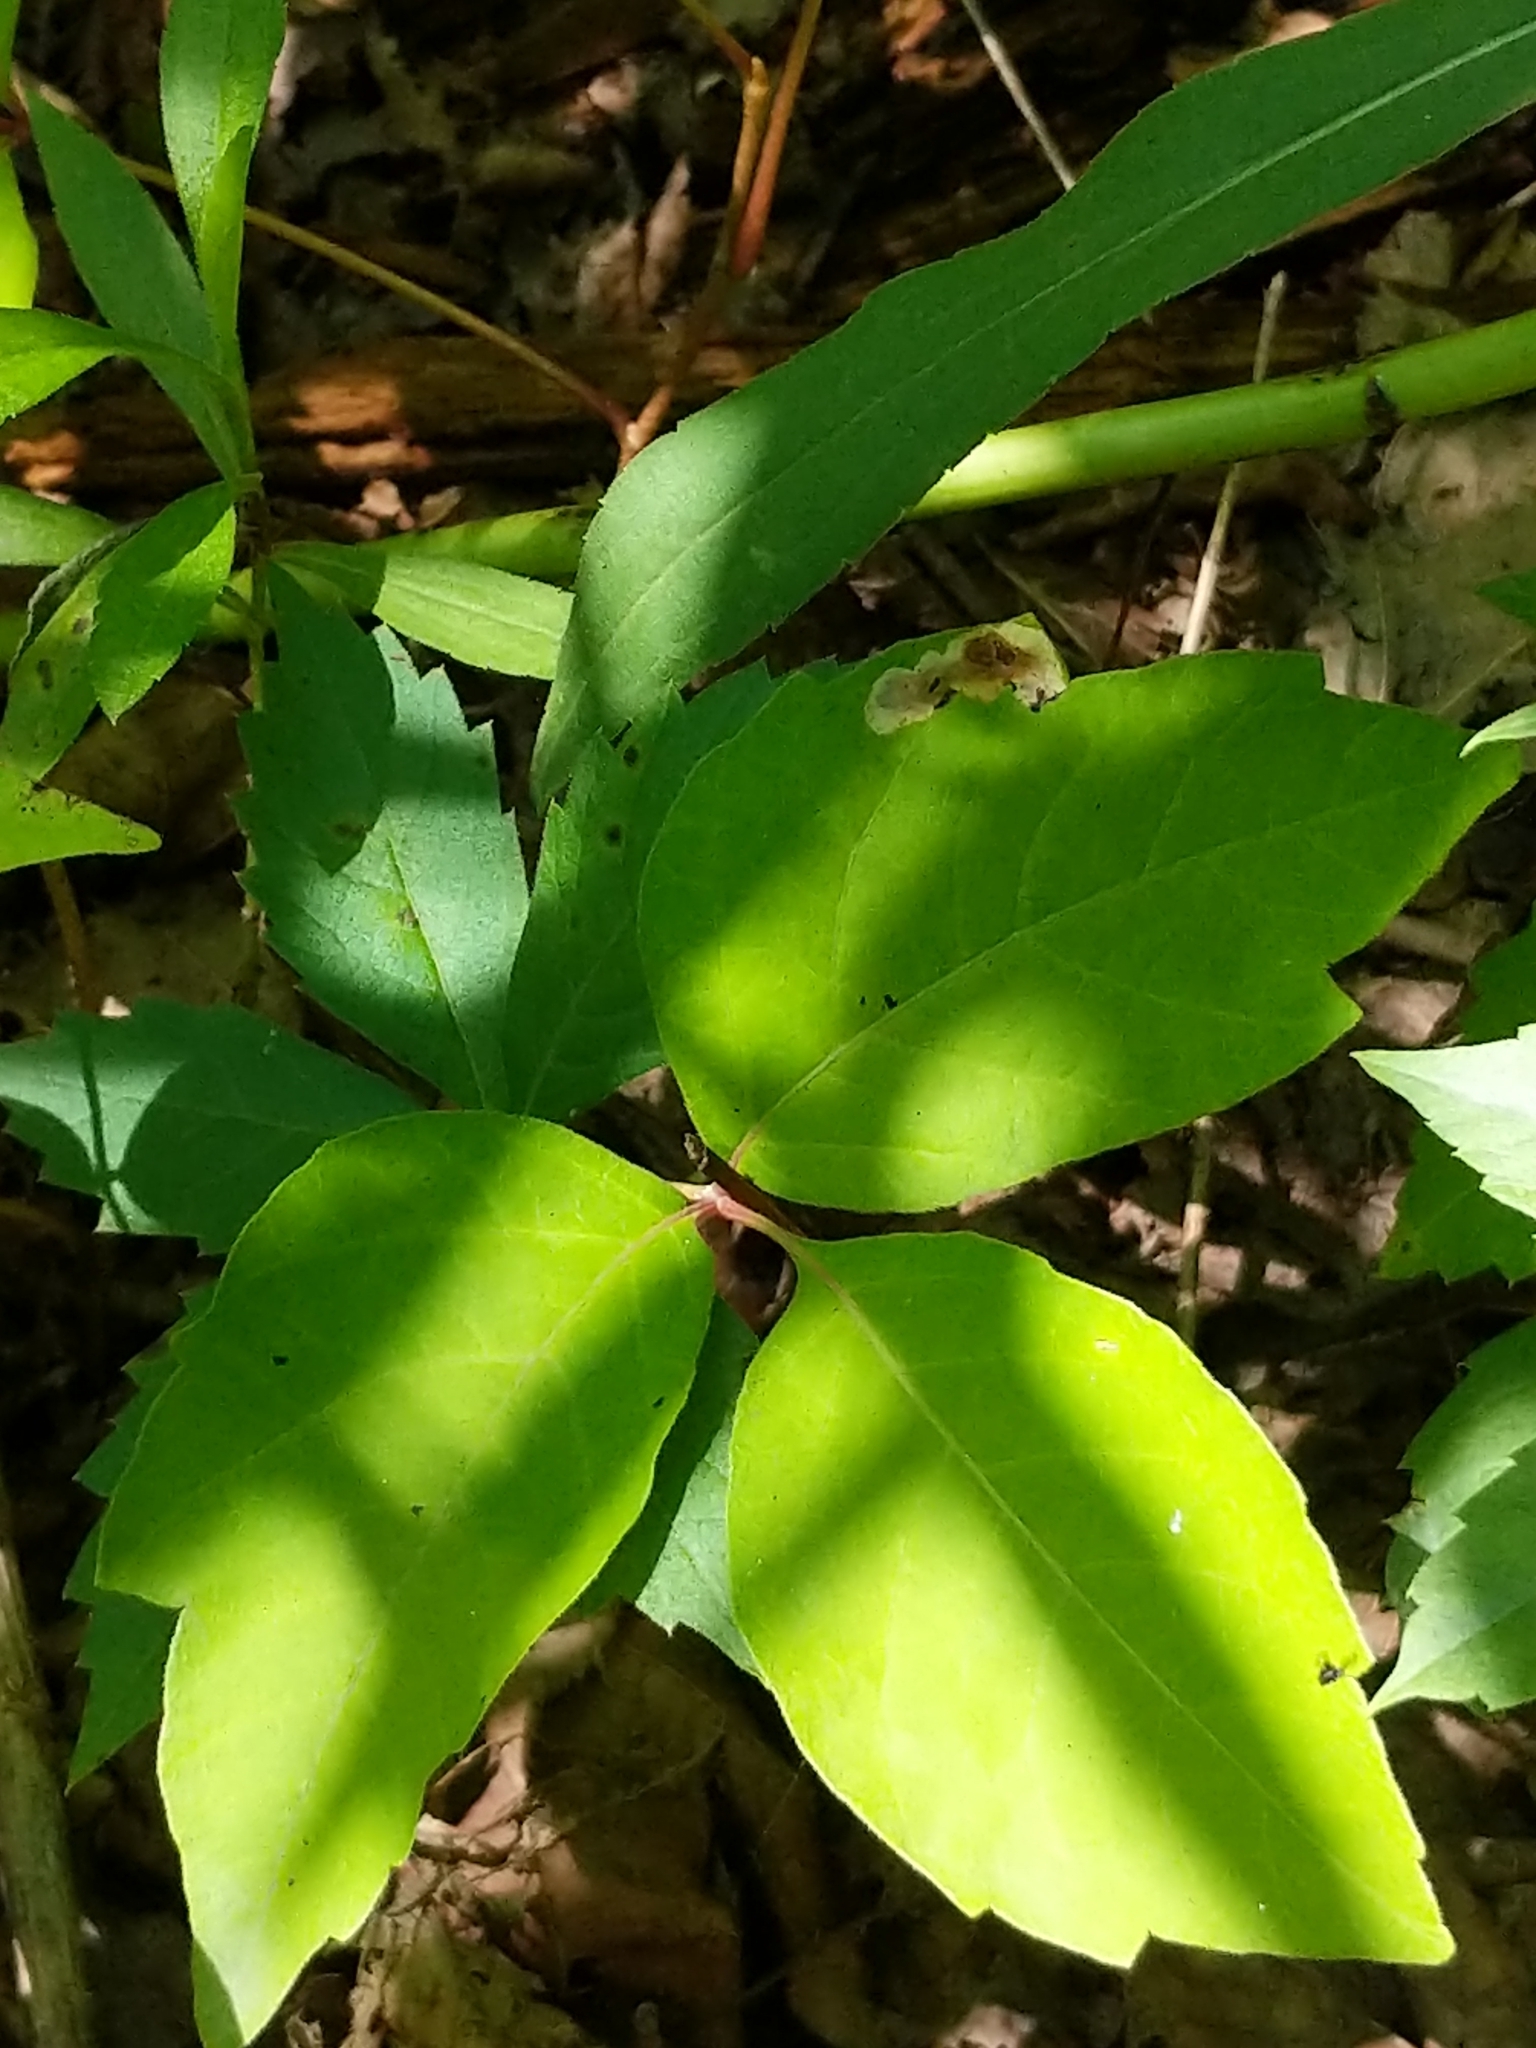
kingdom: Animalia
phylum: Arthropoda
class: Insecta
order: Lepidoptera
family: Gracillariidae
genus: Cameraria
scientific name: Cameraria guttifinitella
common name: Poison ivy leaf-miner moth
